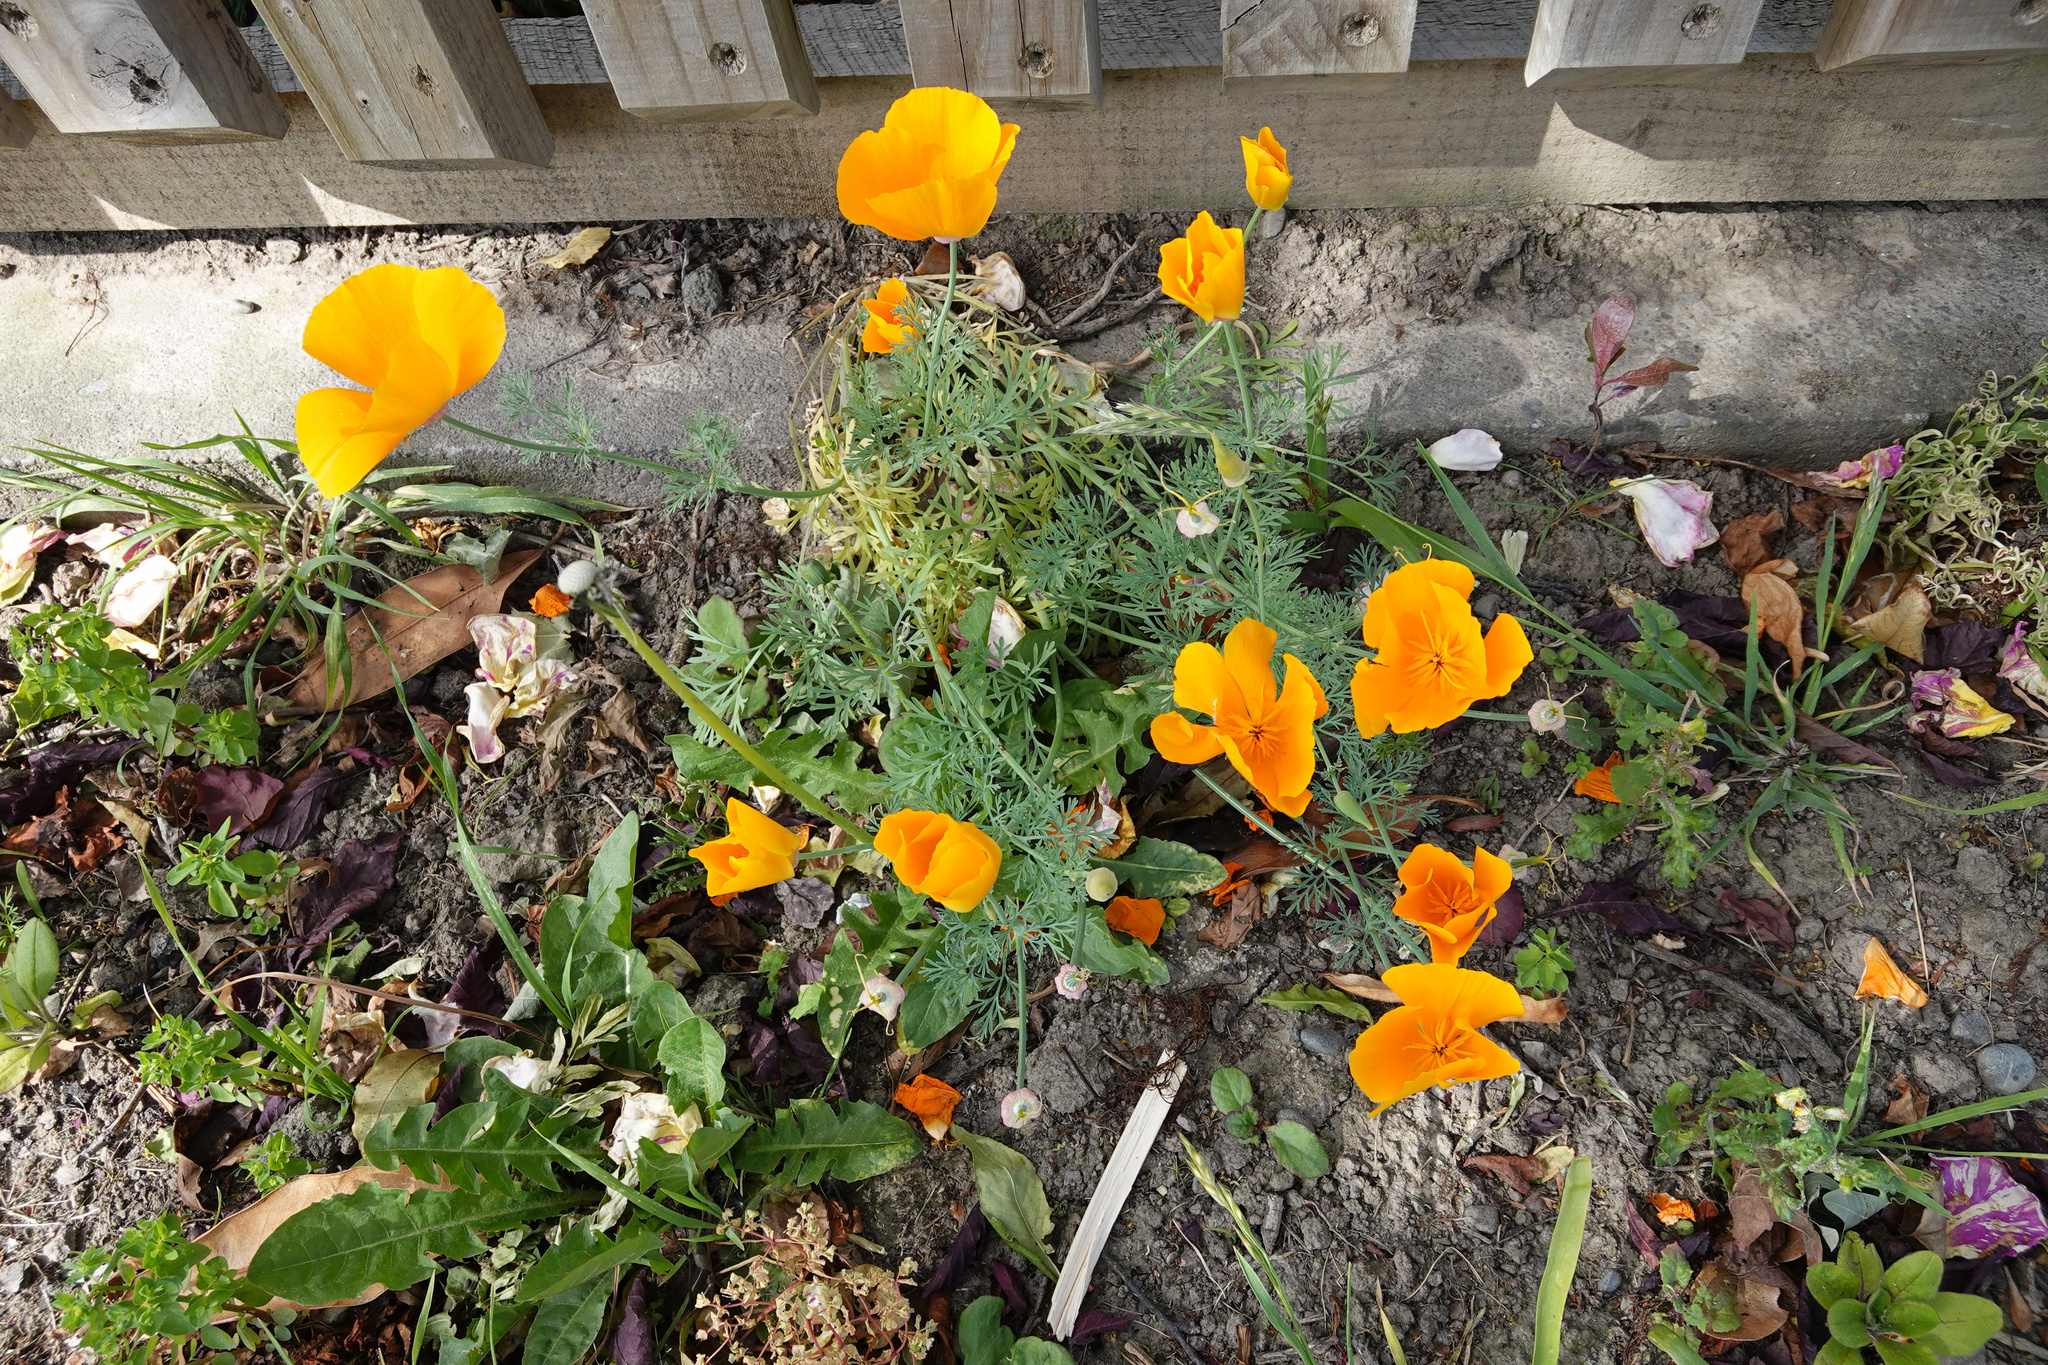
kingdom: Plantae
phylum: Tracheophyta
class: Magnoliopsida
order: Ranunculales
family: Papaveraceae
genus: Eschscholzia
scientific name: Eschscholzia californica
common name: California poppy
